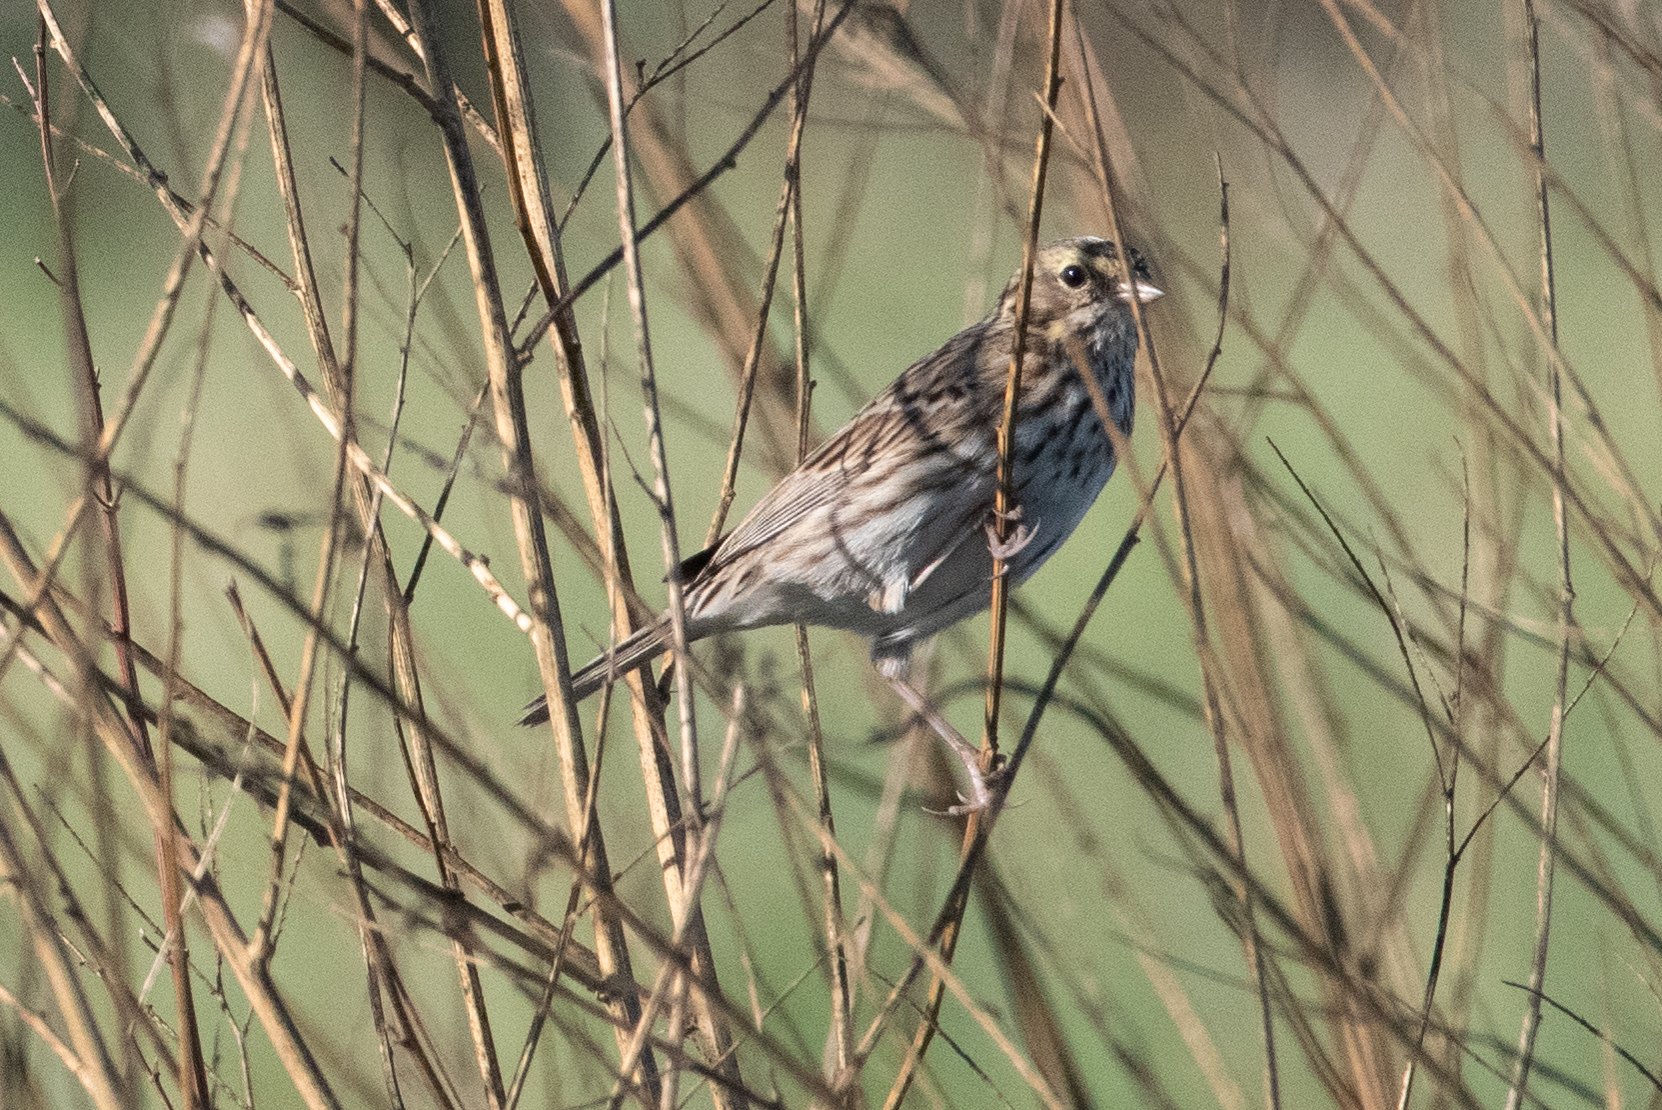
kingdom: Animalia
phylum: Chordata
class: Aves
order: Passeriformes
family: Passerellidae
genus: Passerculus
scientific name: Passerculus sandwichensis
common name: Savannah sparrow
